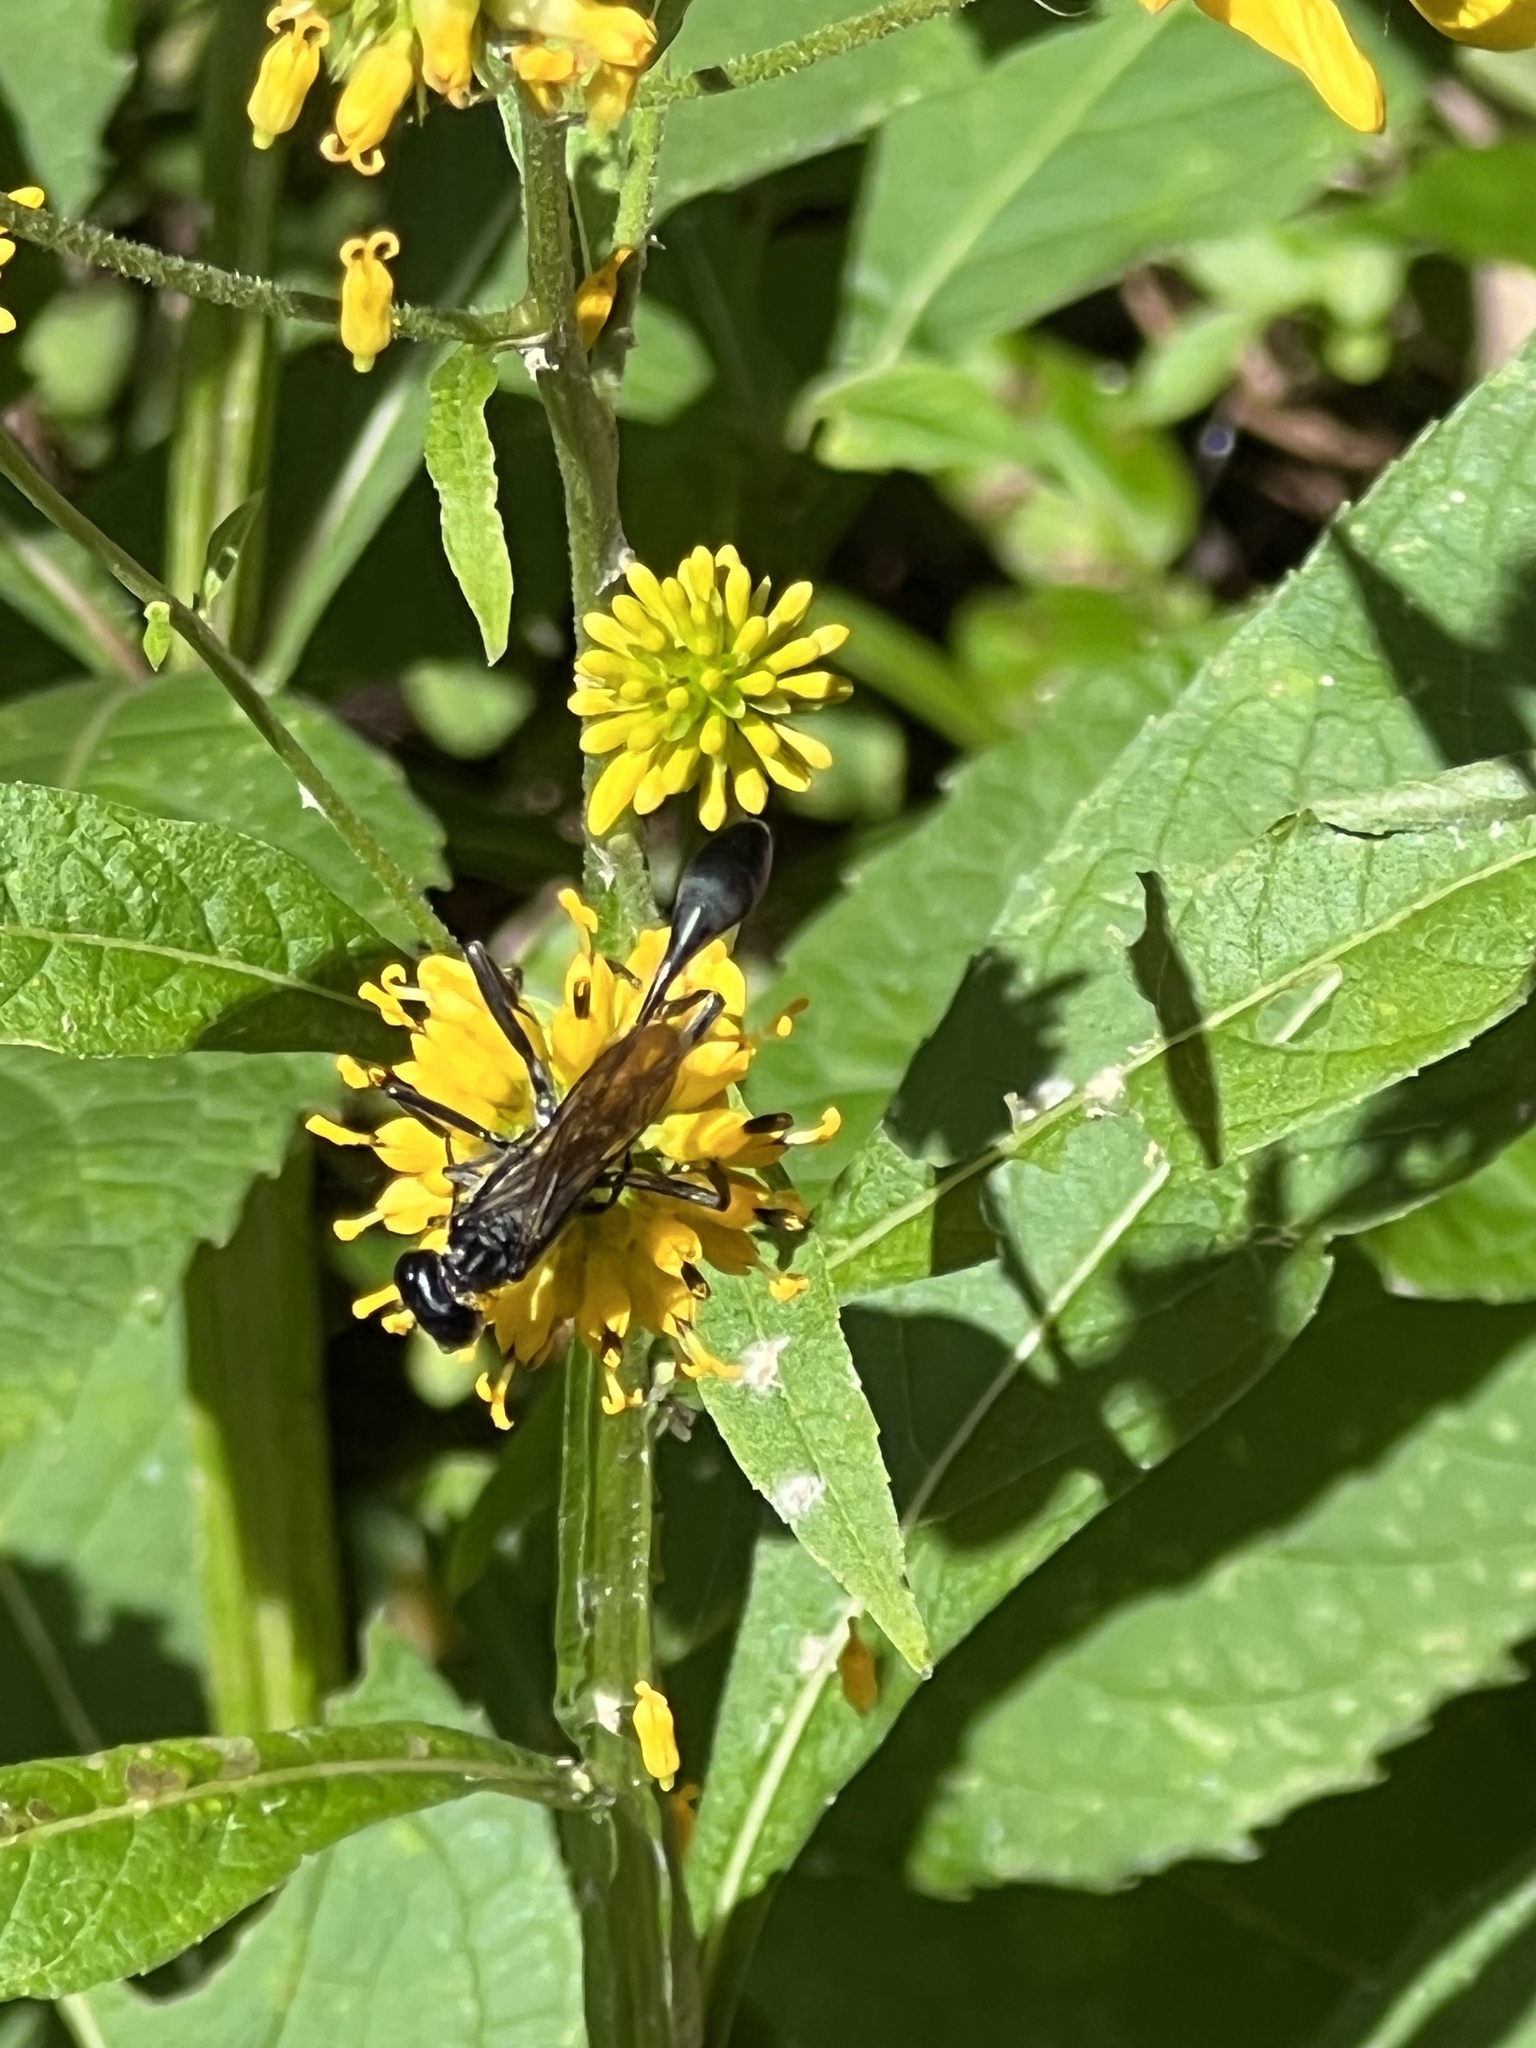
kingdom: Animalia
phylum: Arthropoda
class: Insecta
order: Hymenoptera
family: Sphecidae
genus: Eremnophila
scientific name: Eremnophila aureonotata
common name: Gold-marked thread-waisted wasp
